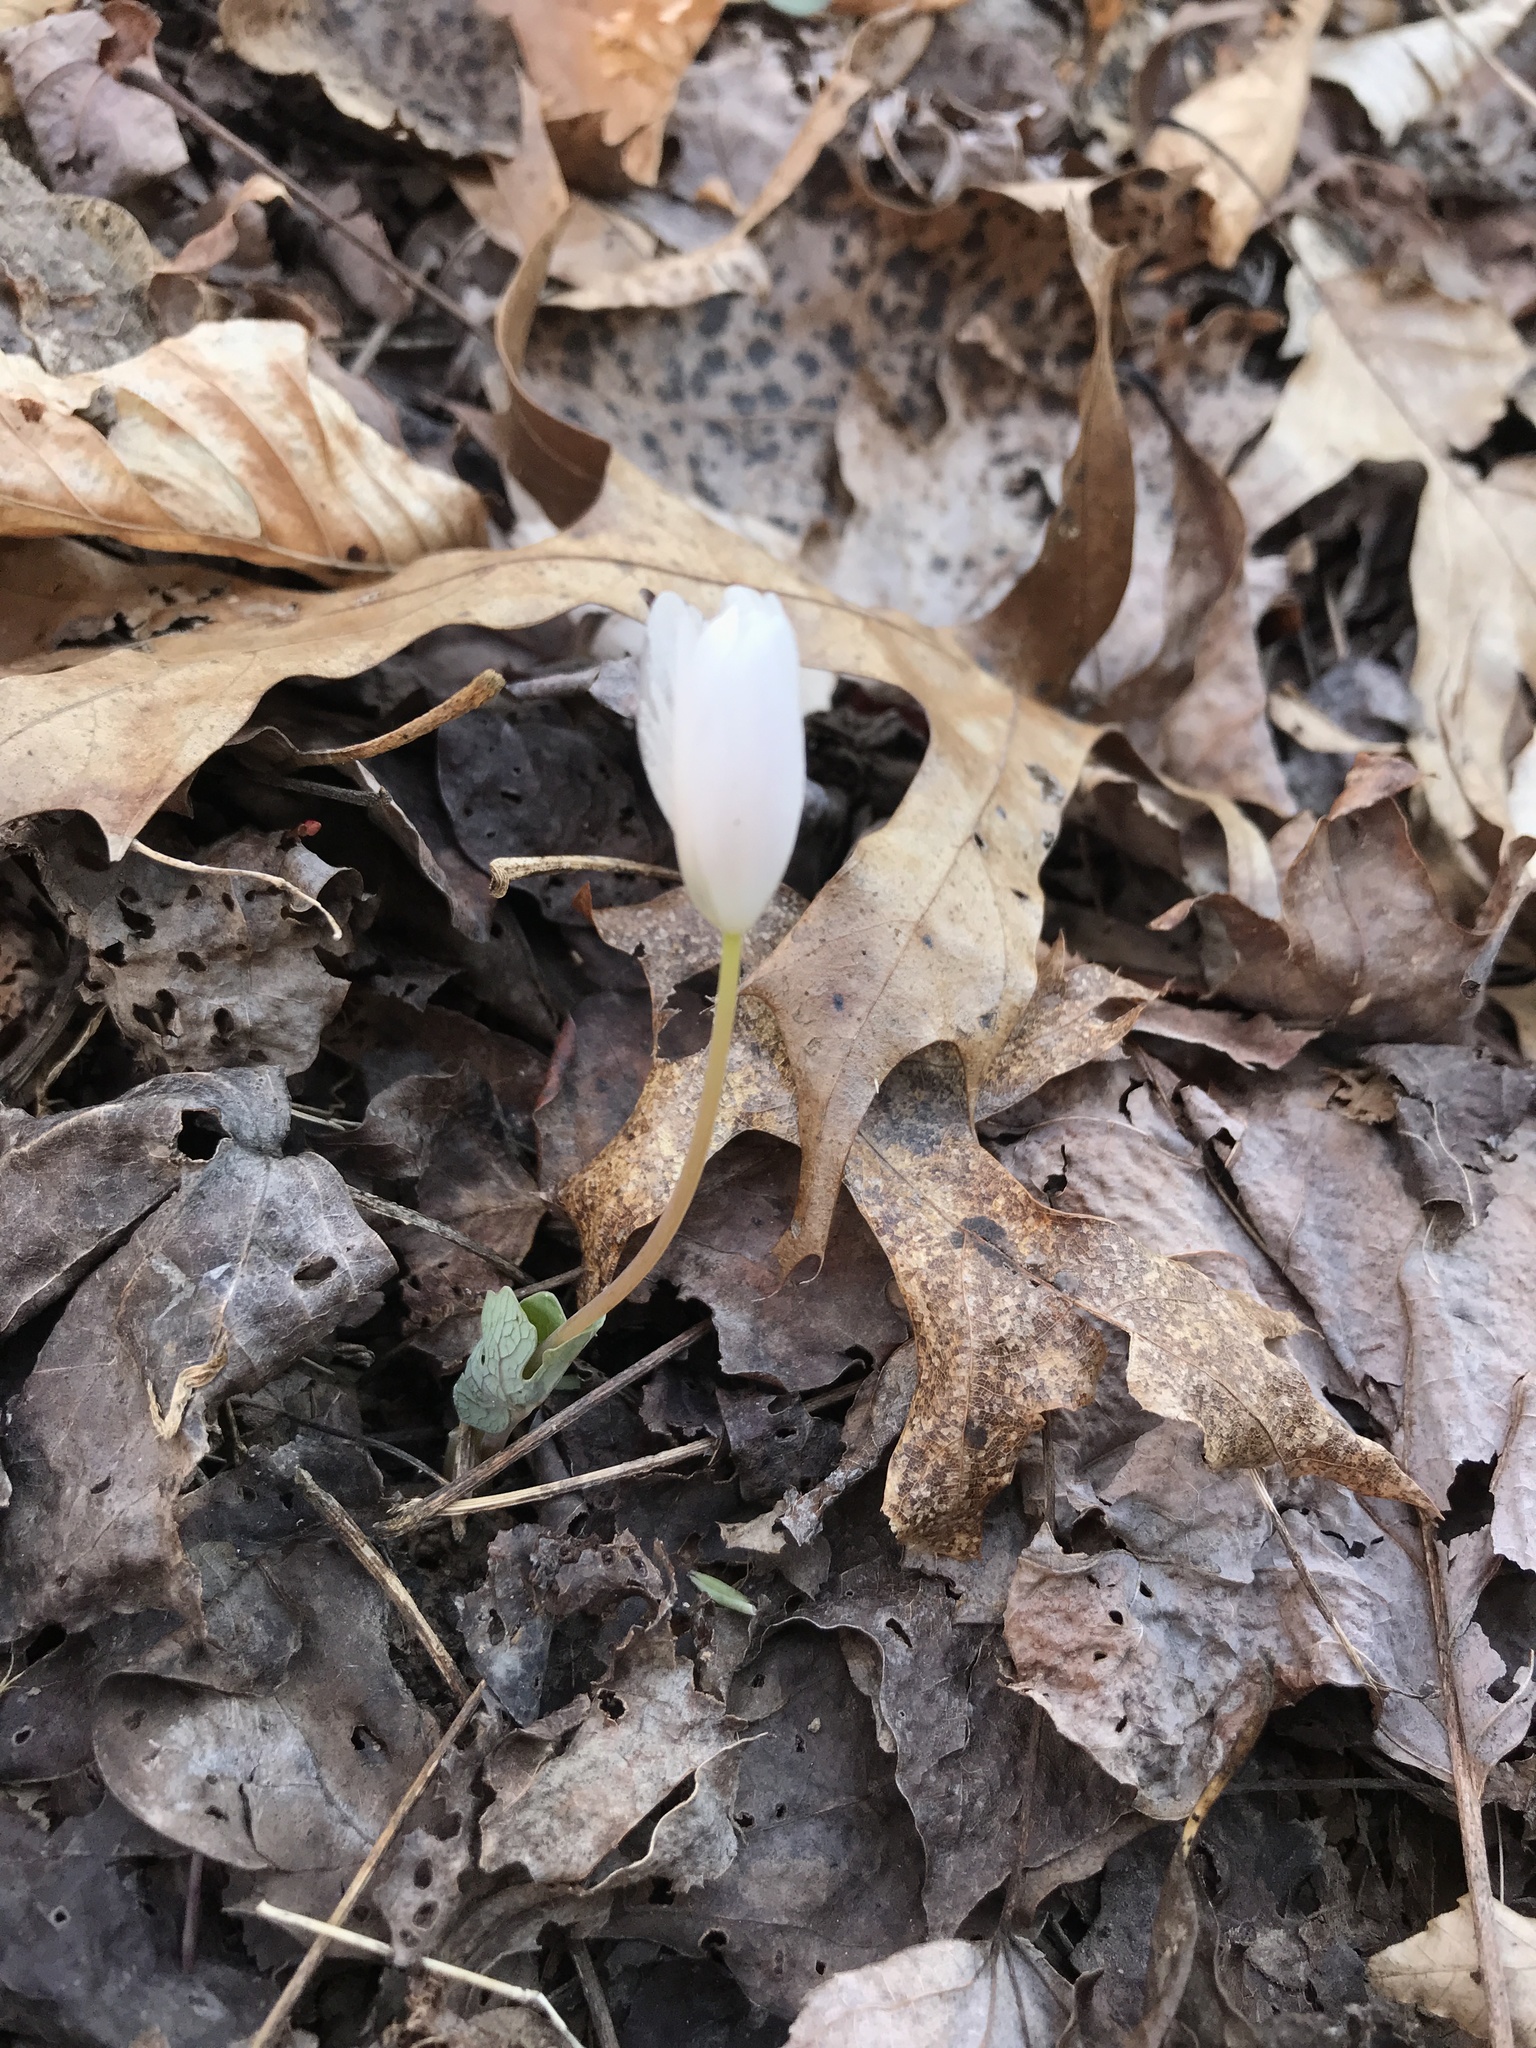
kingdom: Plantae
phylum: Tracheophyta
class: Magnoliopsida
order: Ranunculales
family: Papaveraceae
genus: Sanguinaria
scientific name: Sanguinaria canadensis
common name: Bloodroot
